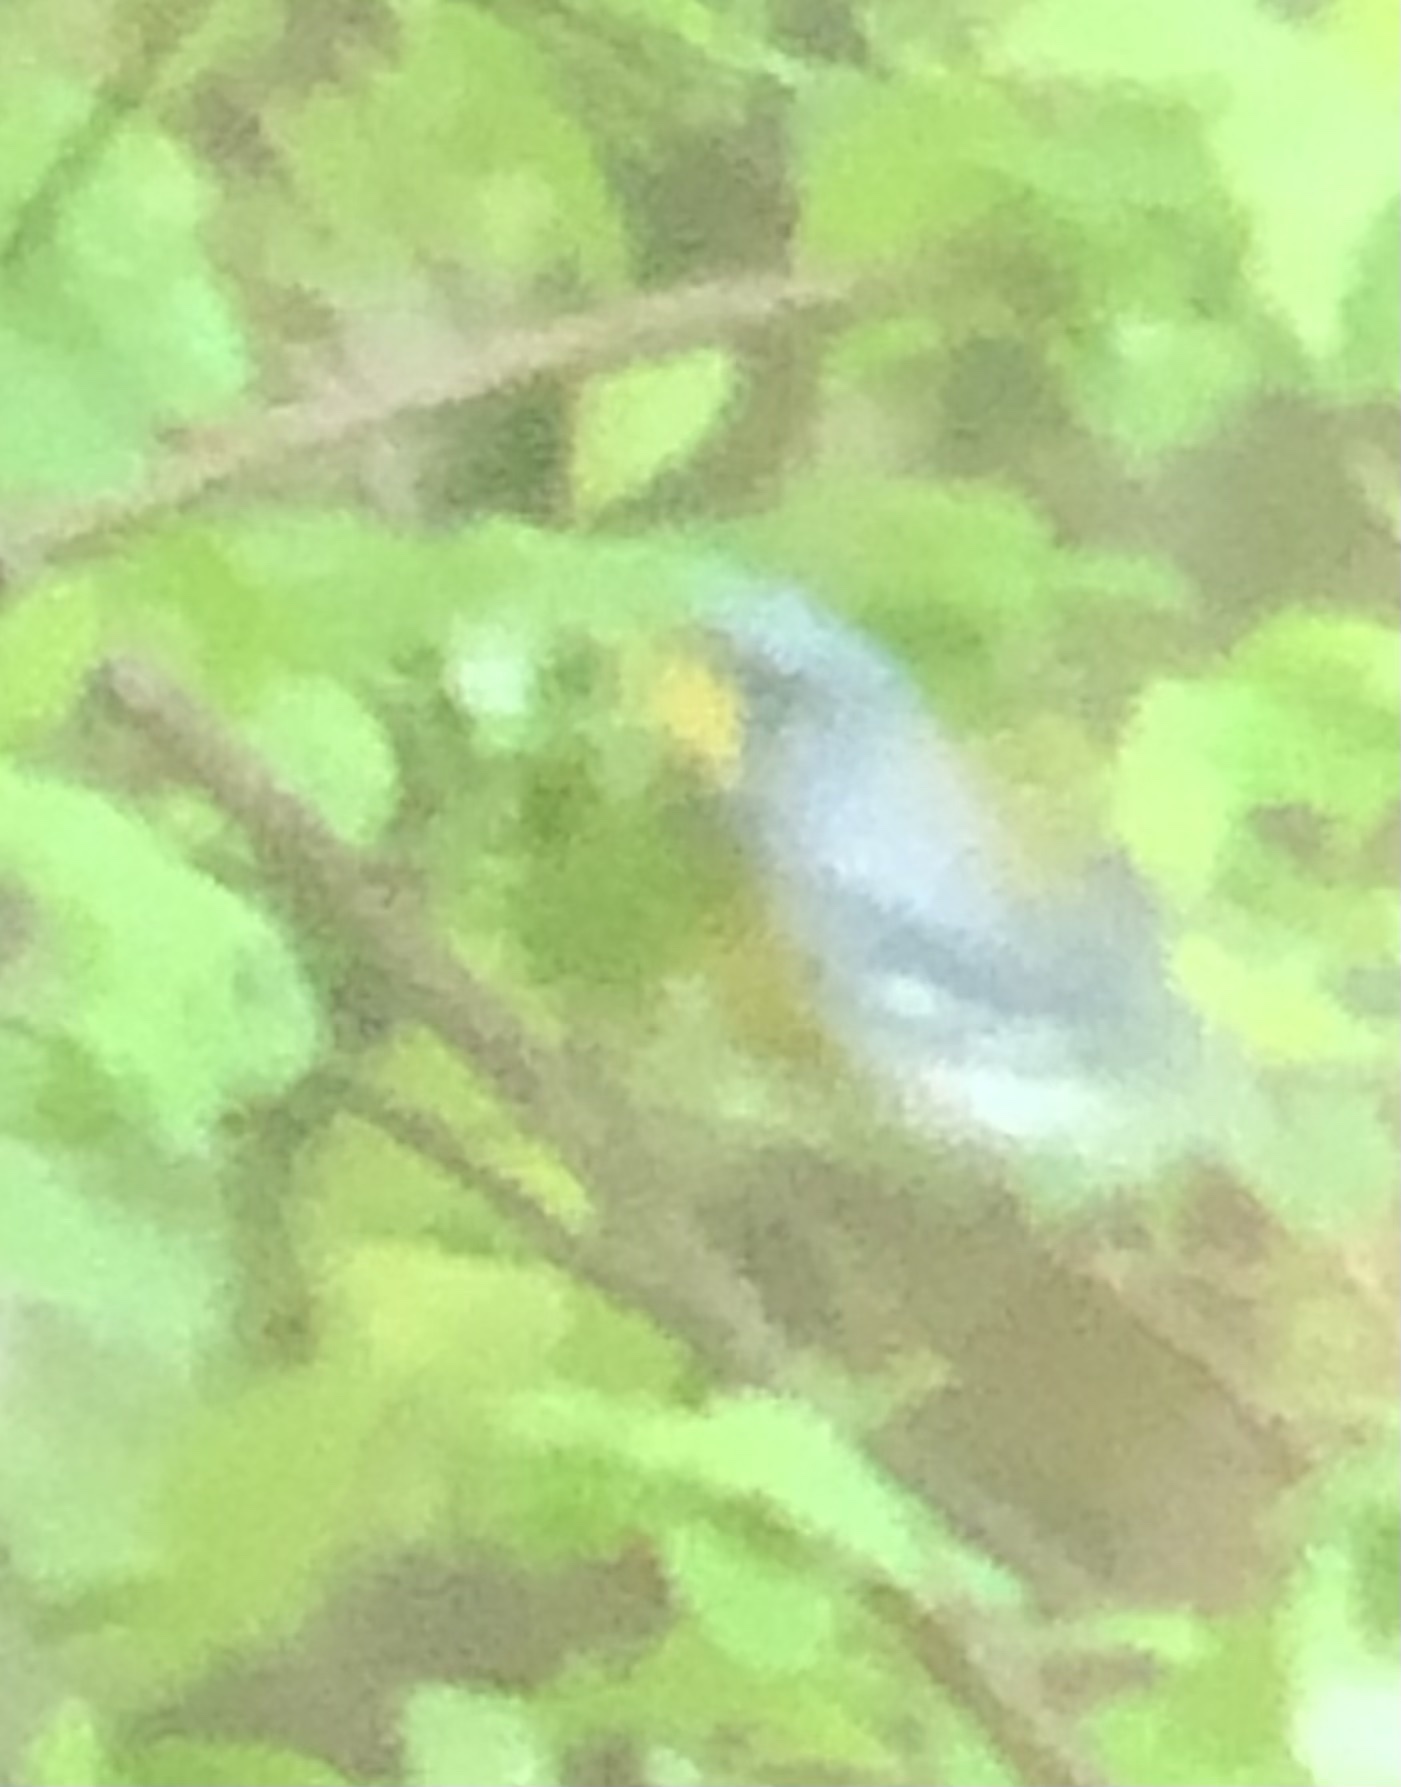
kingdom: Animalia
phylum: Chordata
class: Aves
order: Passeriformes
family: Parulidae
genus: Setophaga
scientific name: Setophaga americana
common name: Northern parula
